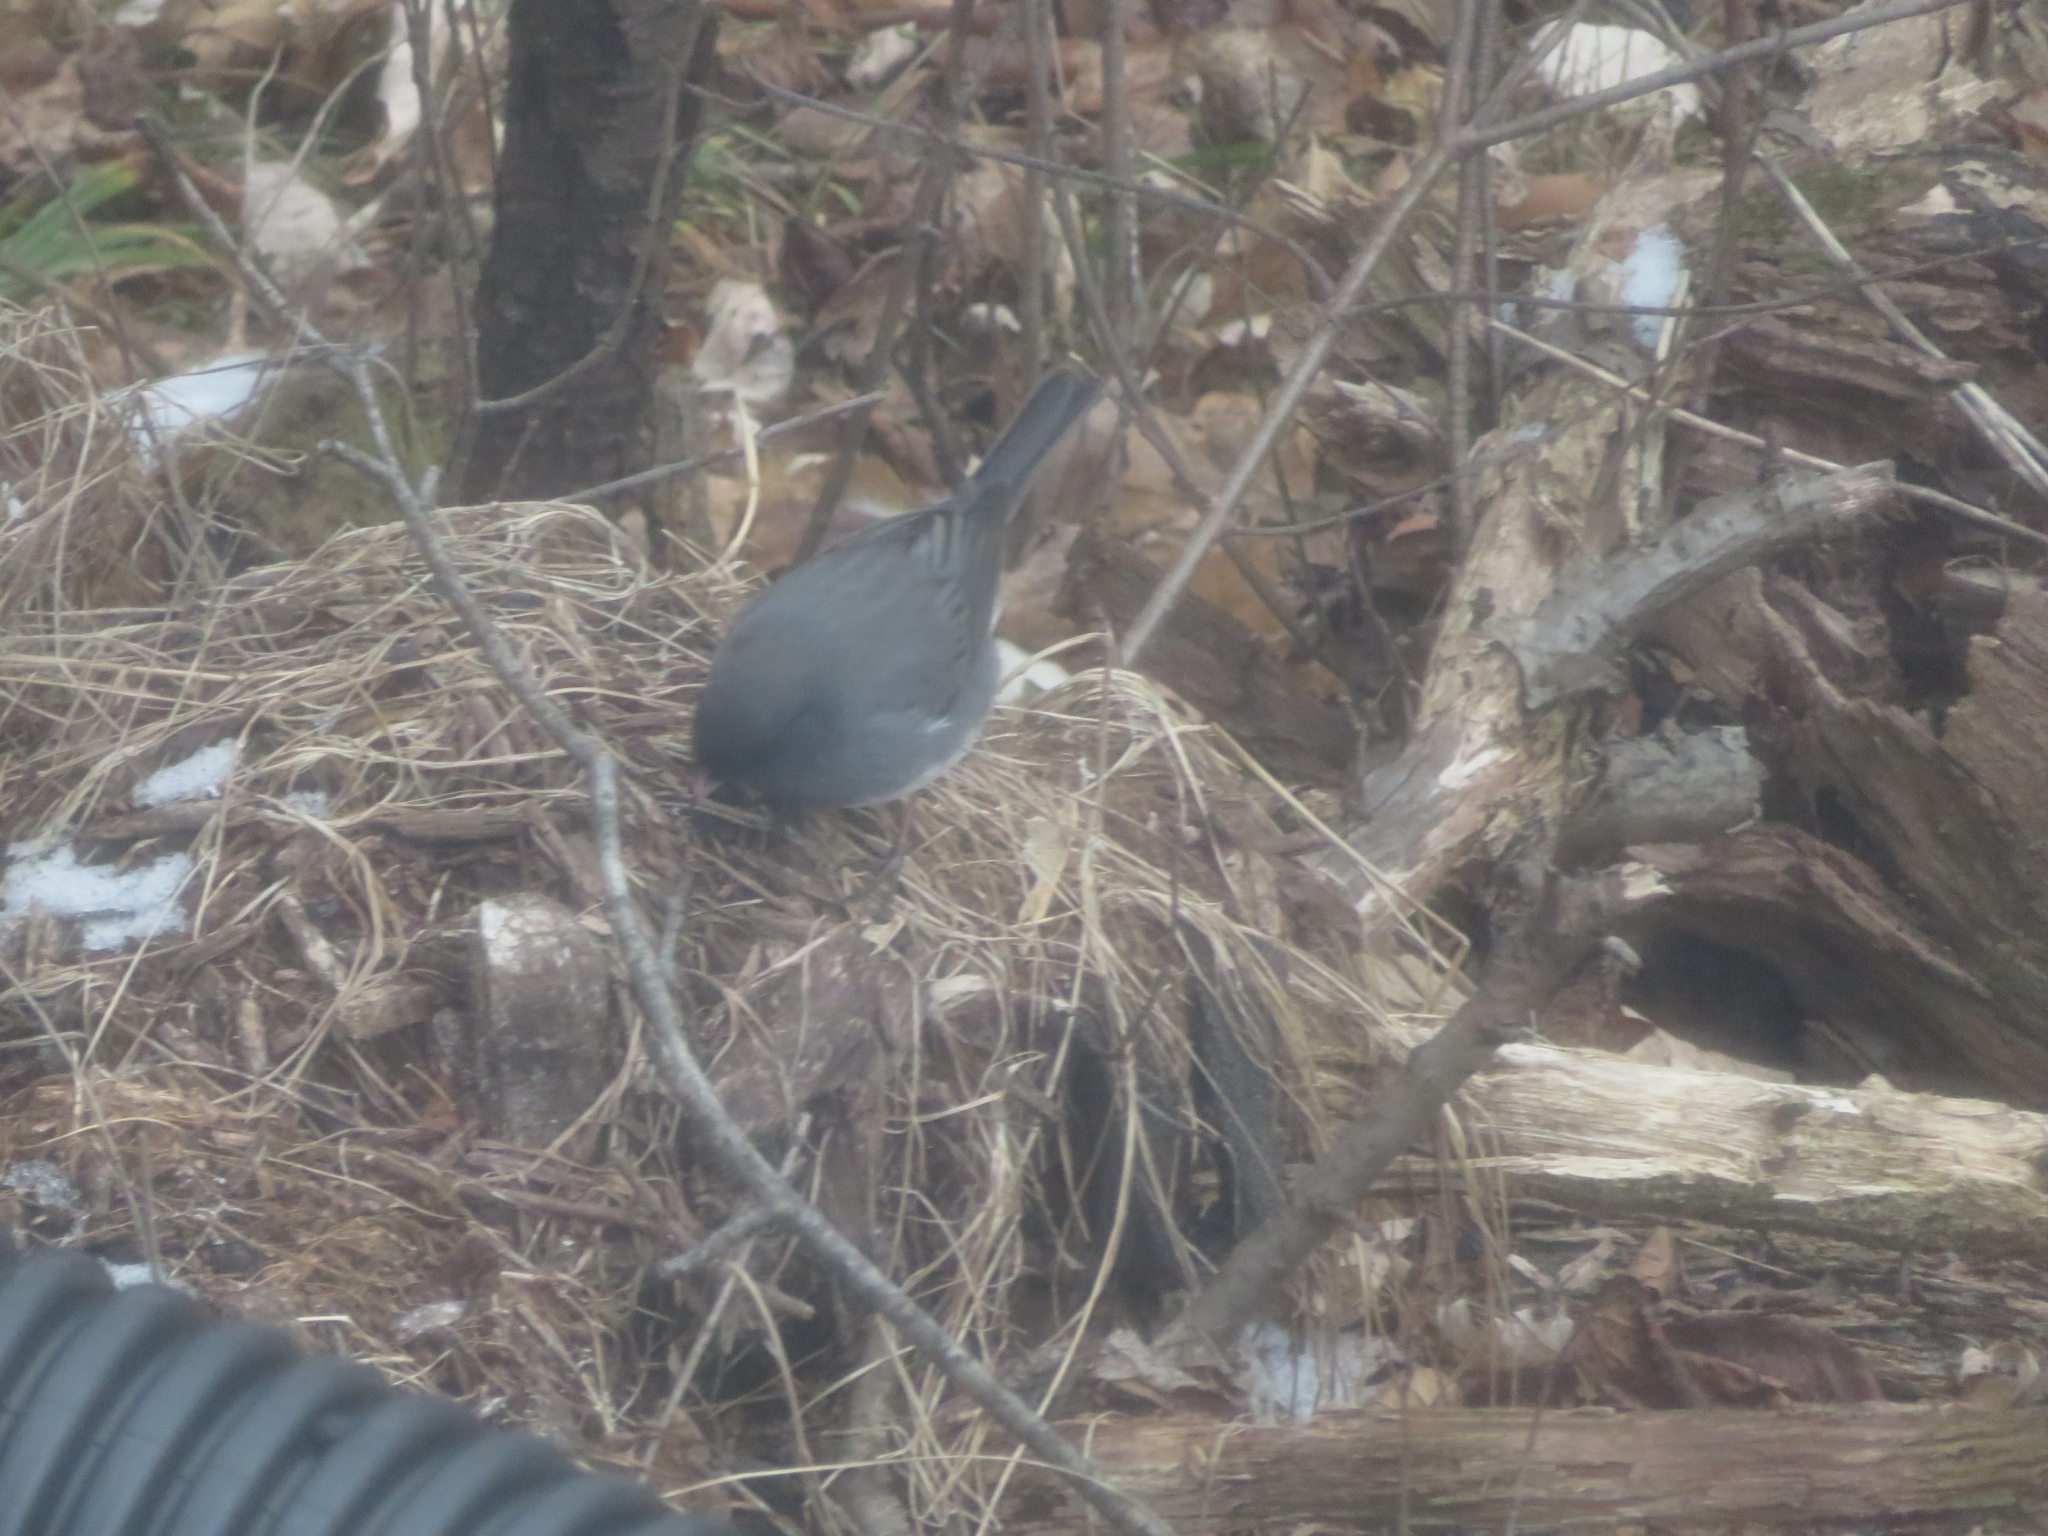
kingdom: Animalia
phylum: Chordata
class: Aves
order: Passeriformes
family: Passerellidae
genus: Junco
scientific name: Junco hyemalis
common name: Dark-eyed junco
